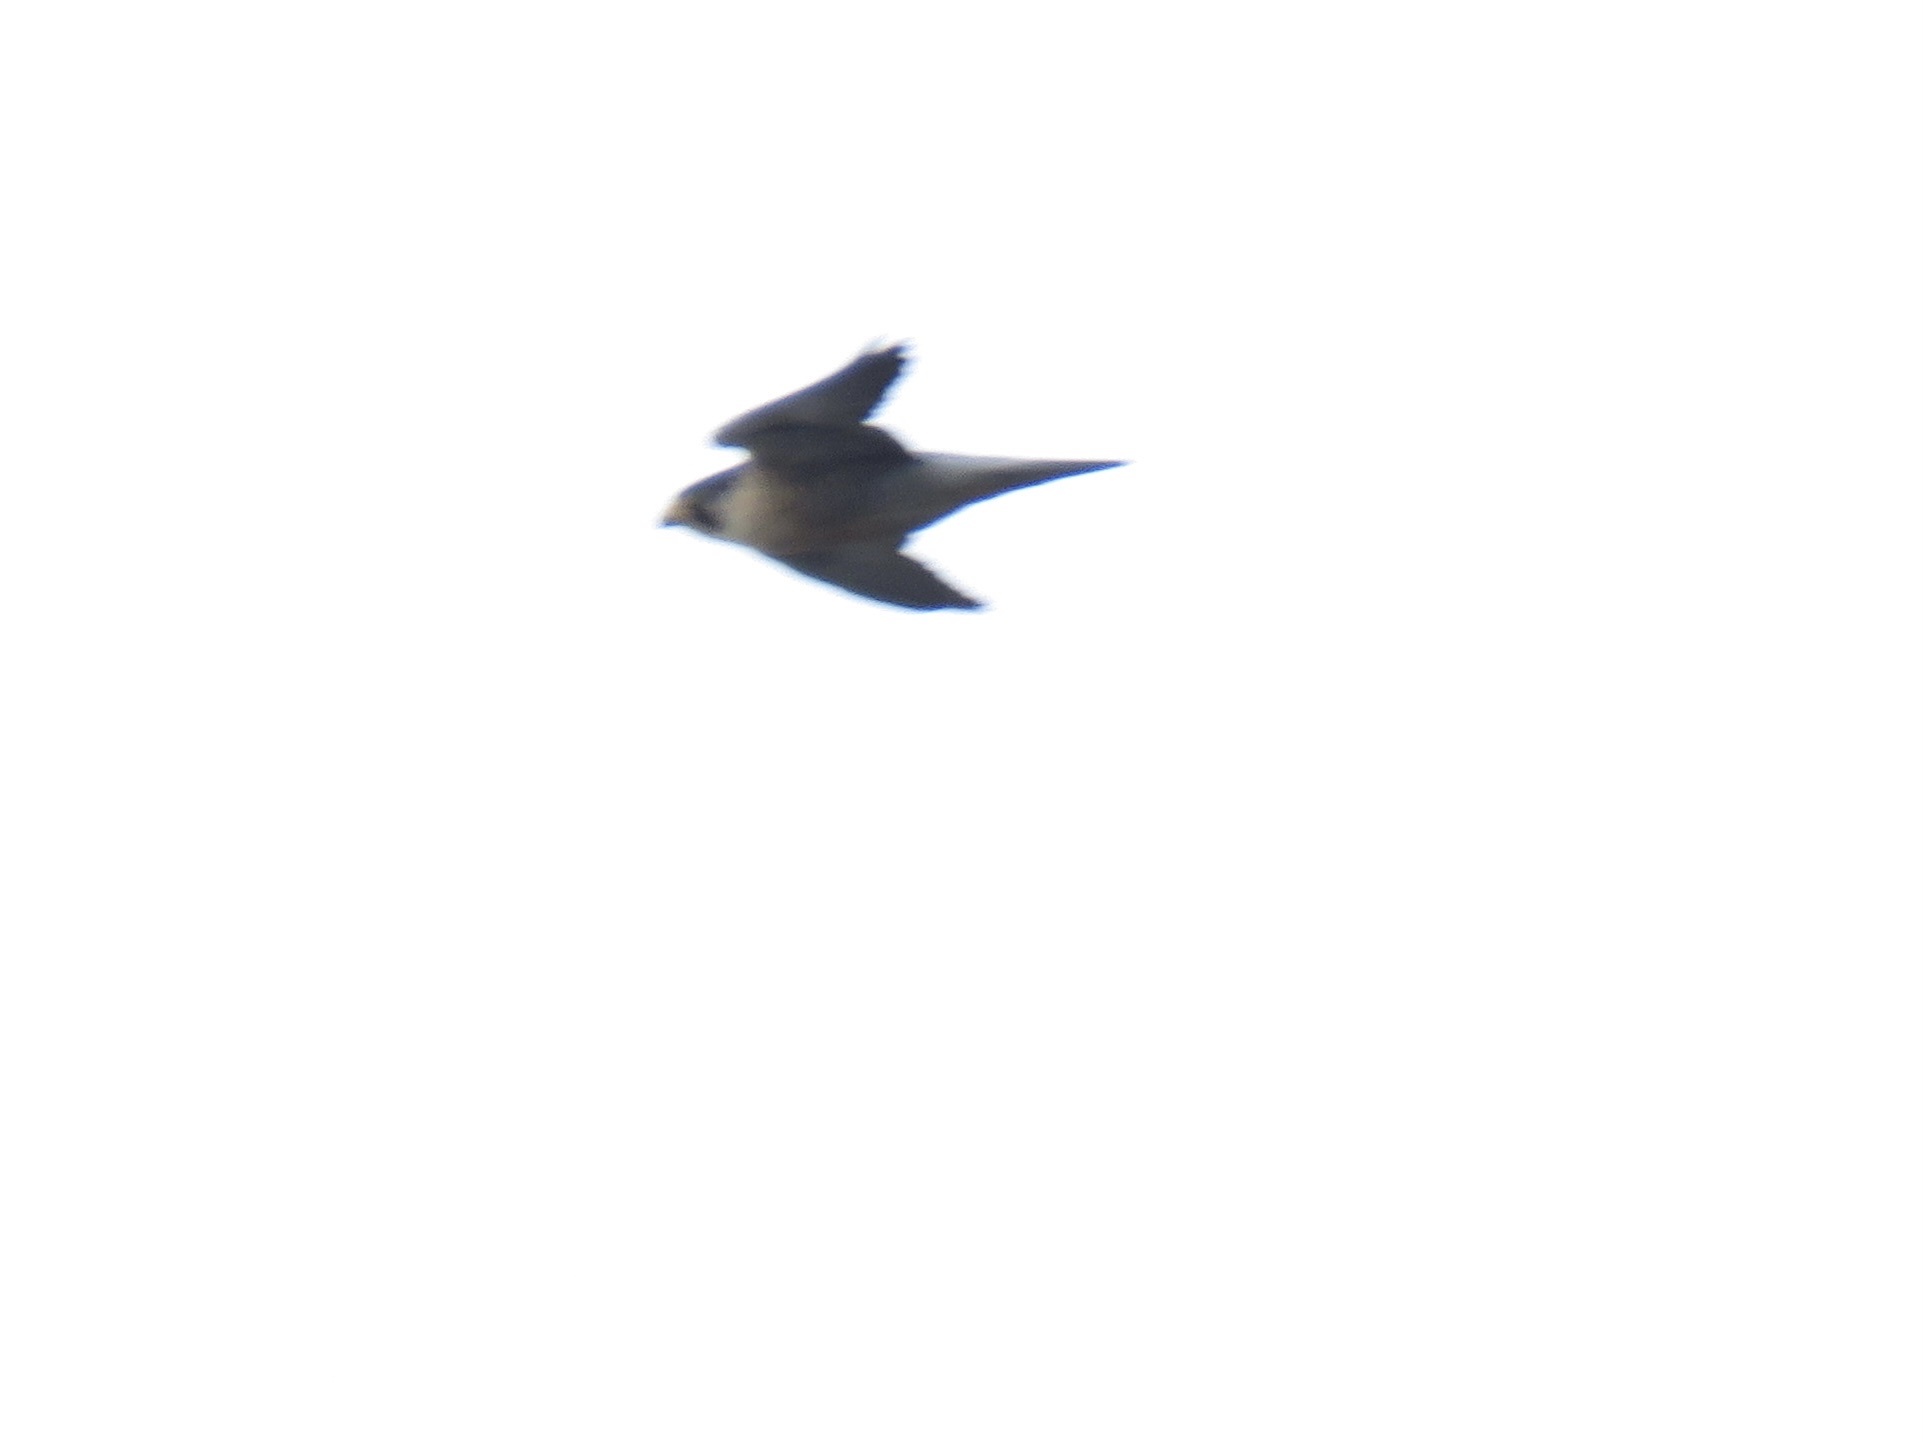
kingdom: Animalia
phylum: Chordata
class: Aves
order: Falconiformes
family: Falconidae
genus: Falco
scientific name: Falco peregrinus
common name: Peregrine falcon
